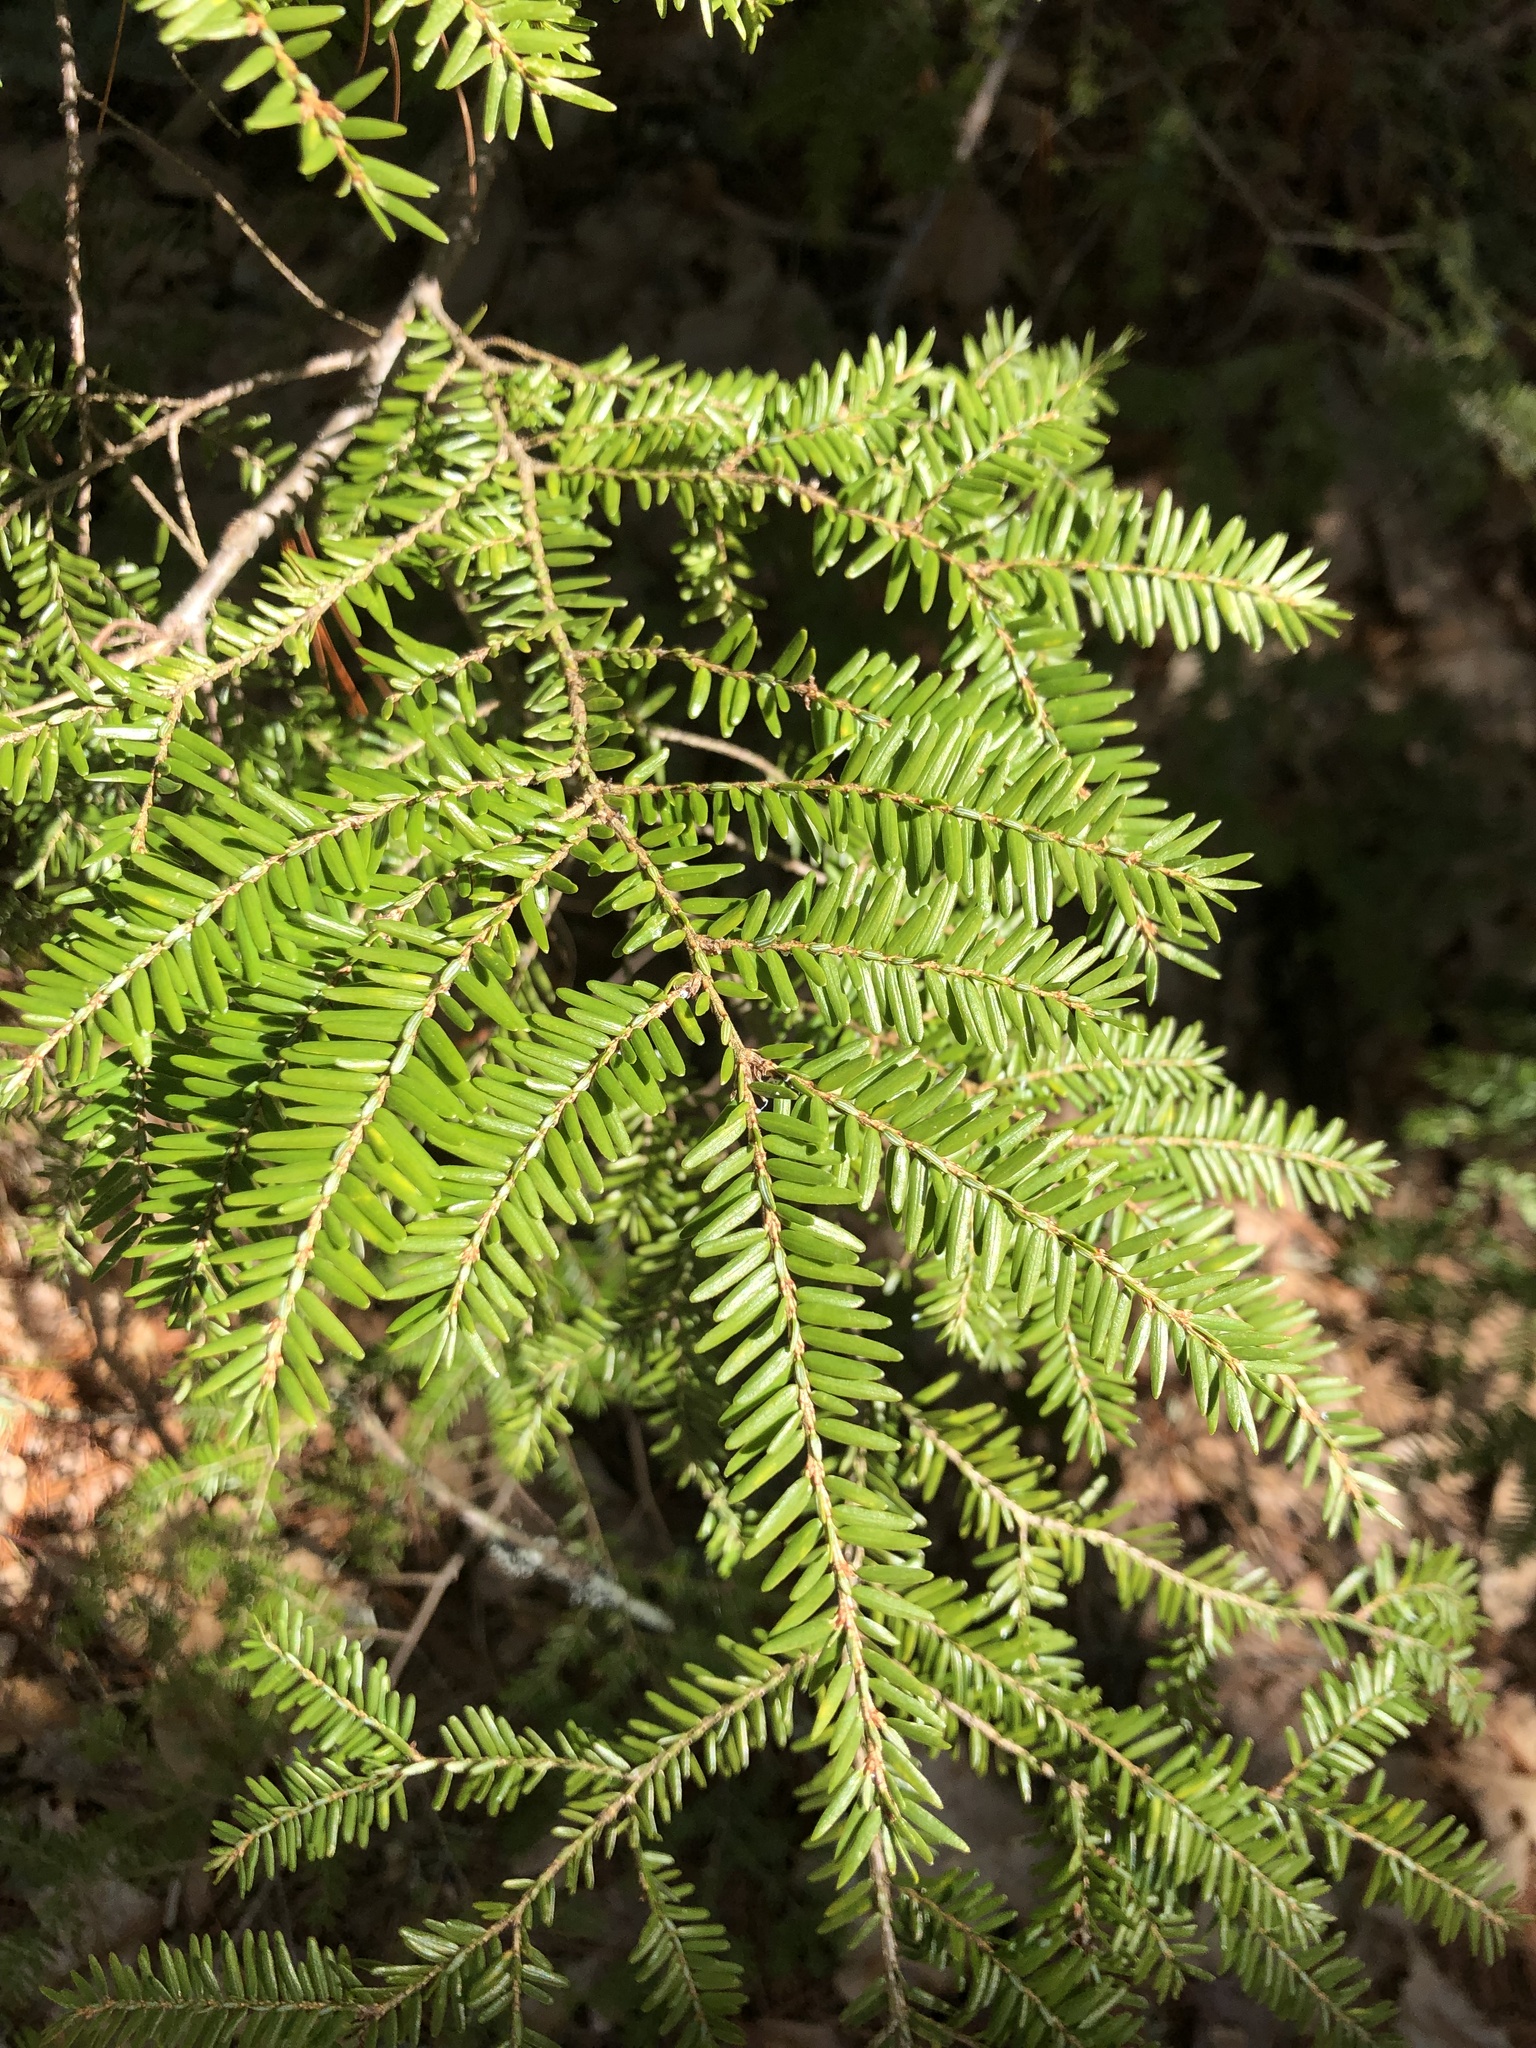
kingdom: Plantae
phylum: Tracheophyta
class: Pinopsida
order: Pinales
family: Pinaceae
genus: Tsuga
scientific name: Tsuga canadensis
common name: Eastern hemlock
